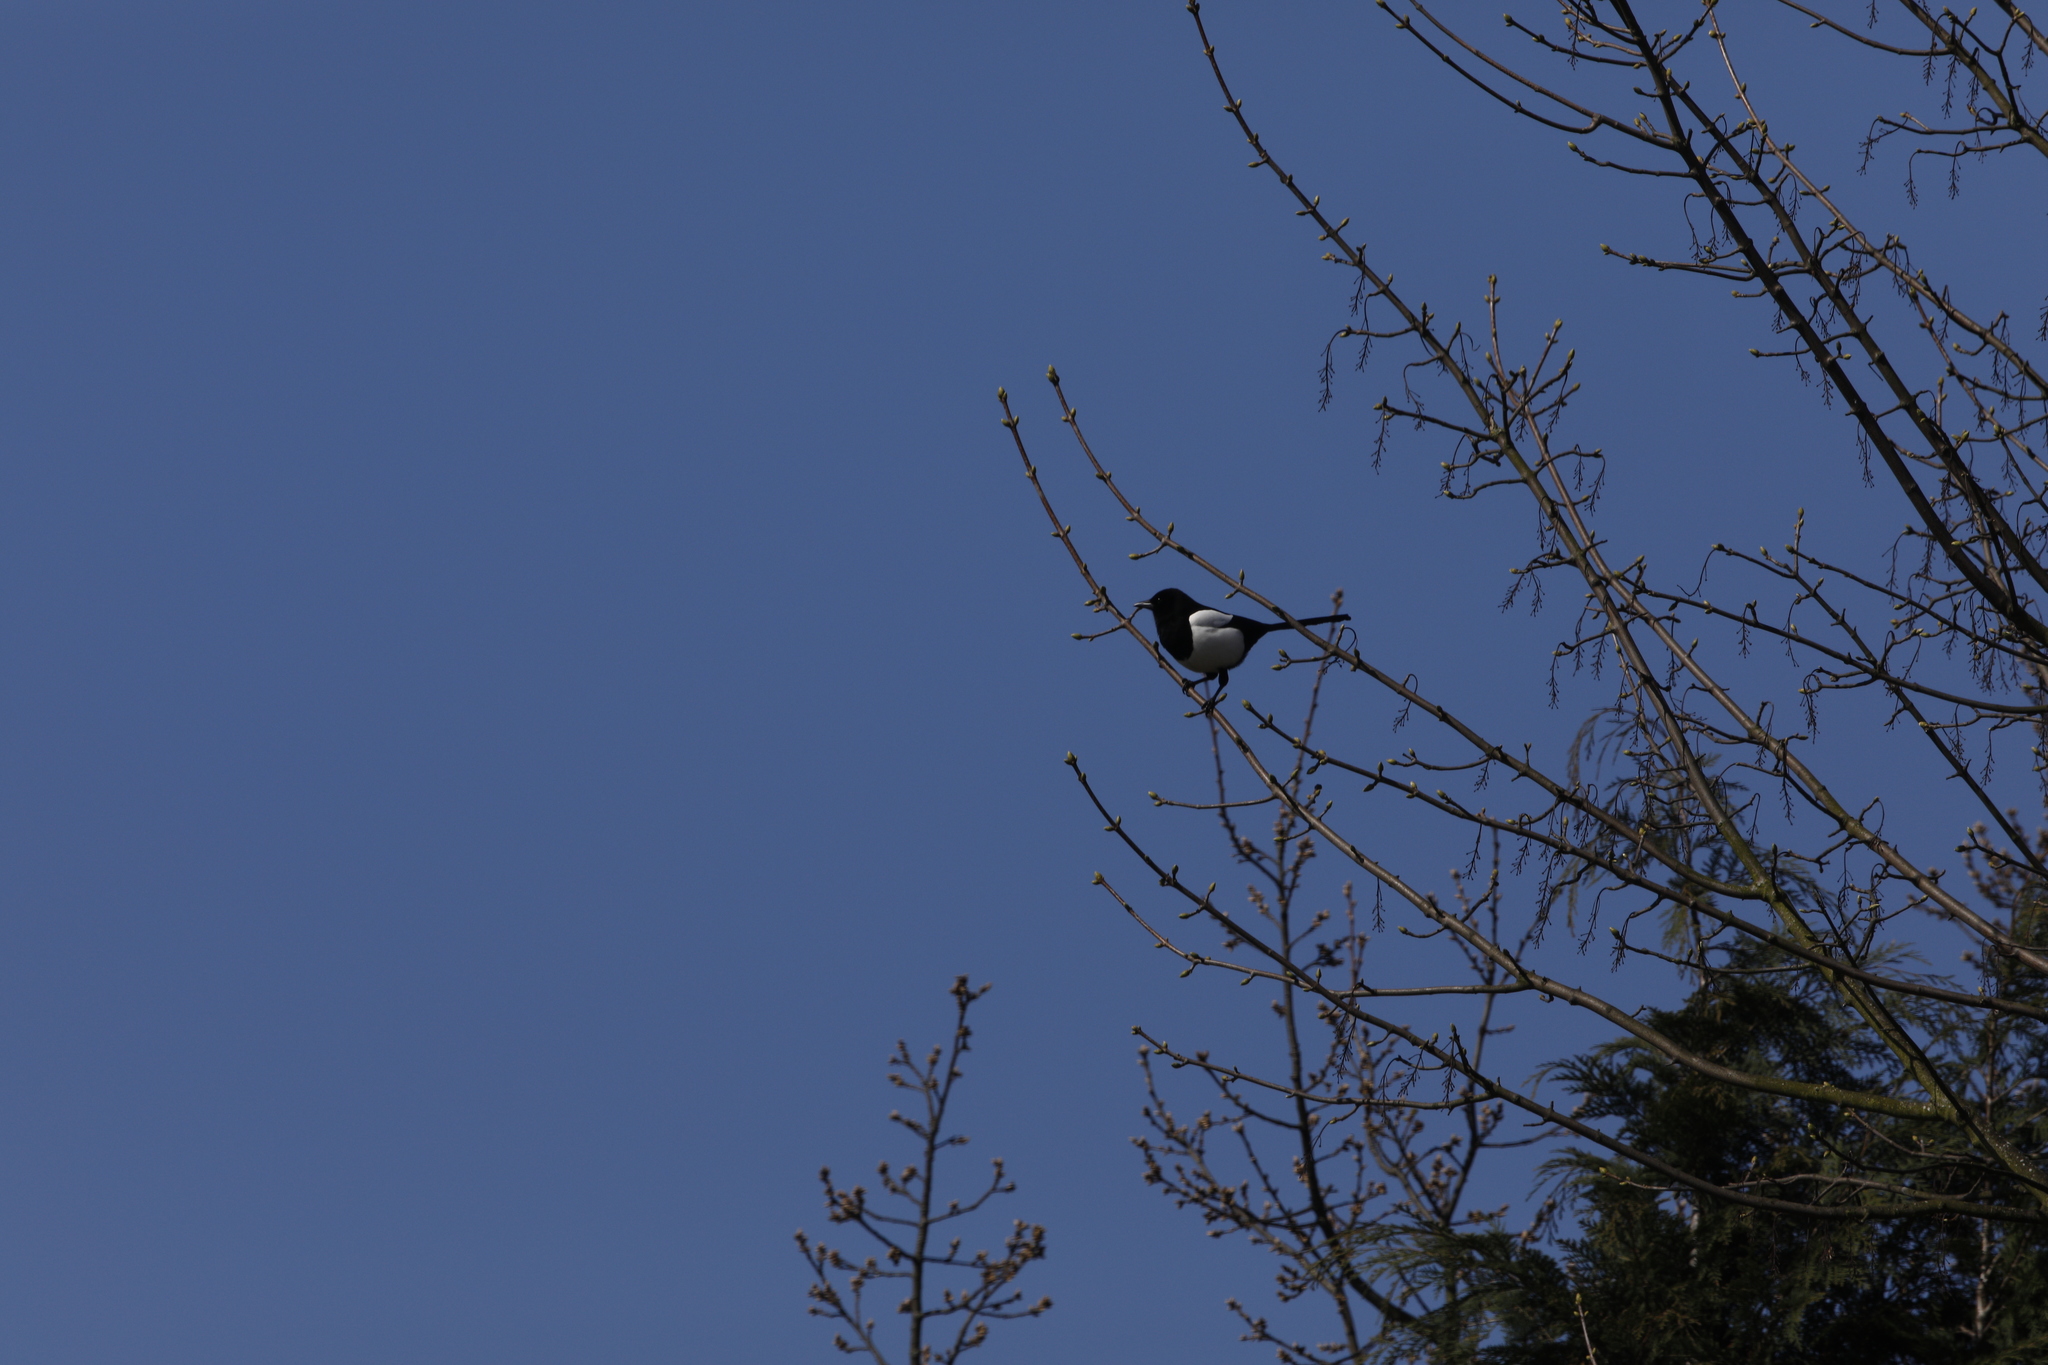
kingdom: Animalia
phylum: Chordata
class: Aves
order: Passeriformes
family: Corvidae
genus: Pica
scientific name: Pica pica
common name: Eurasian magpie
